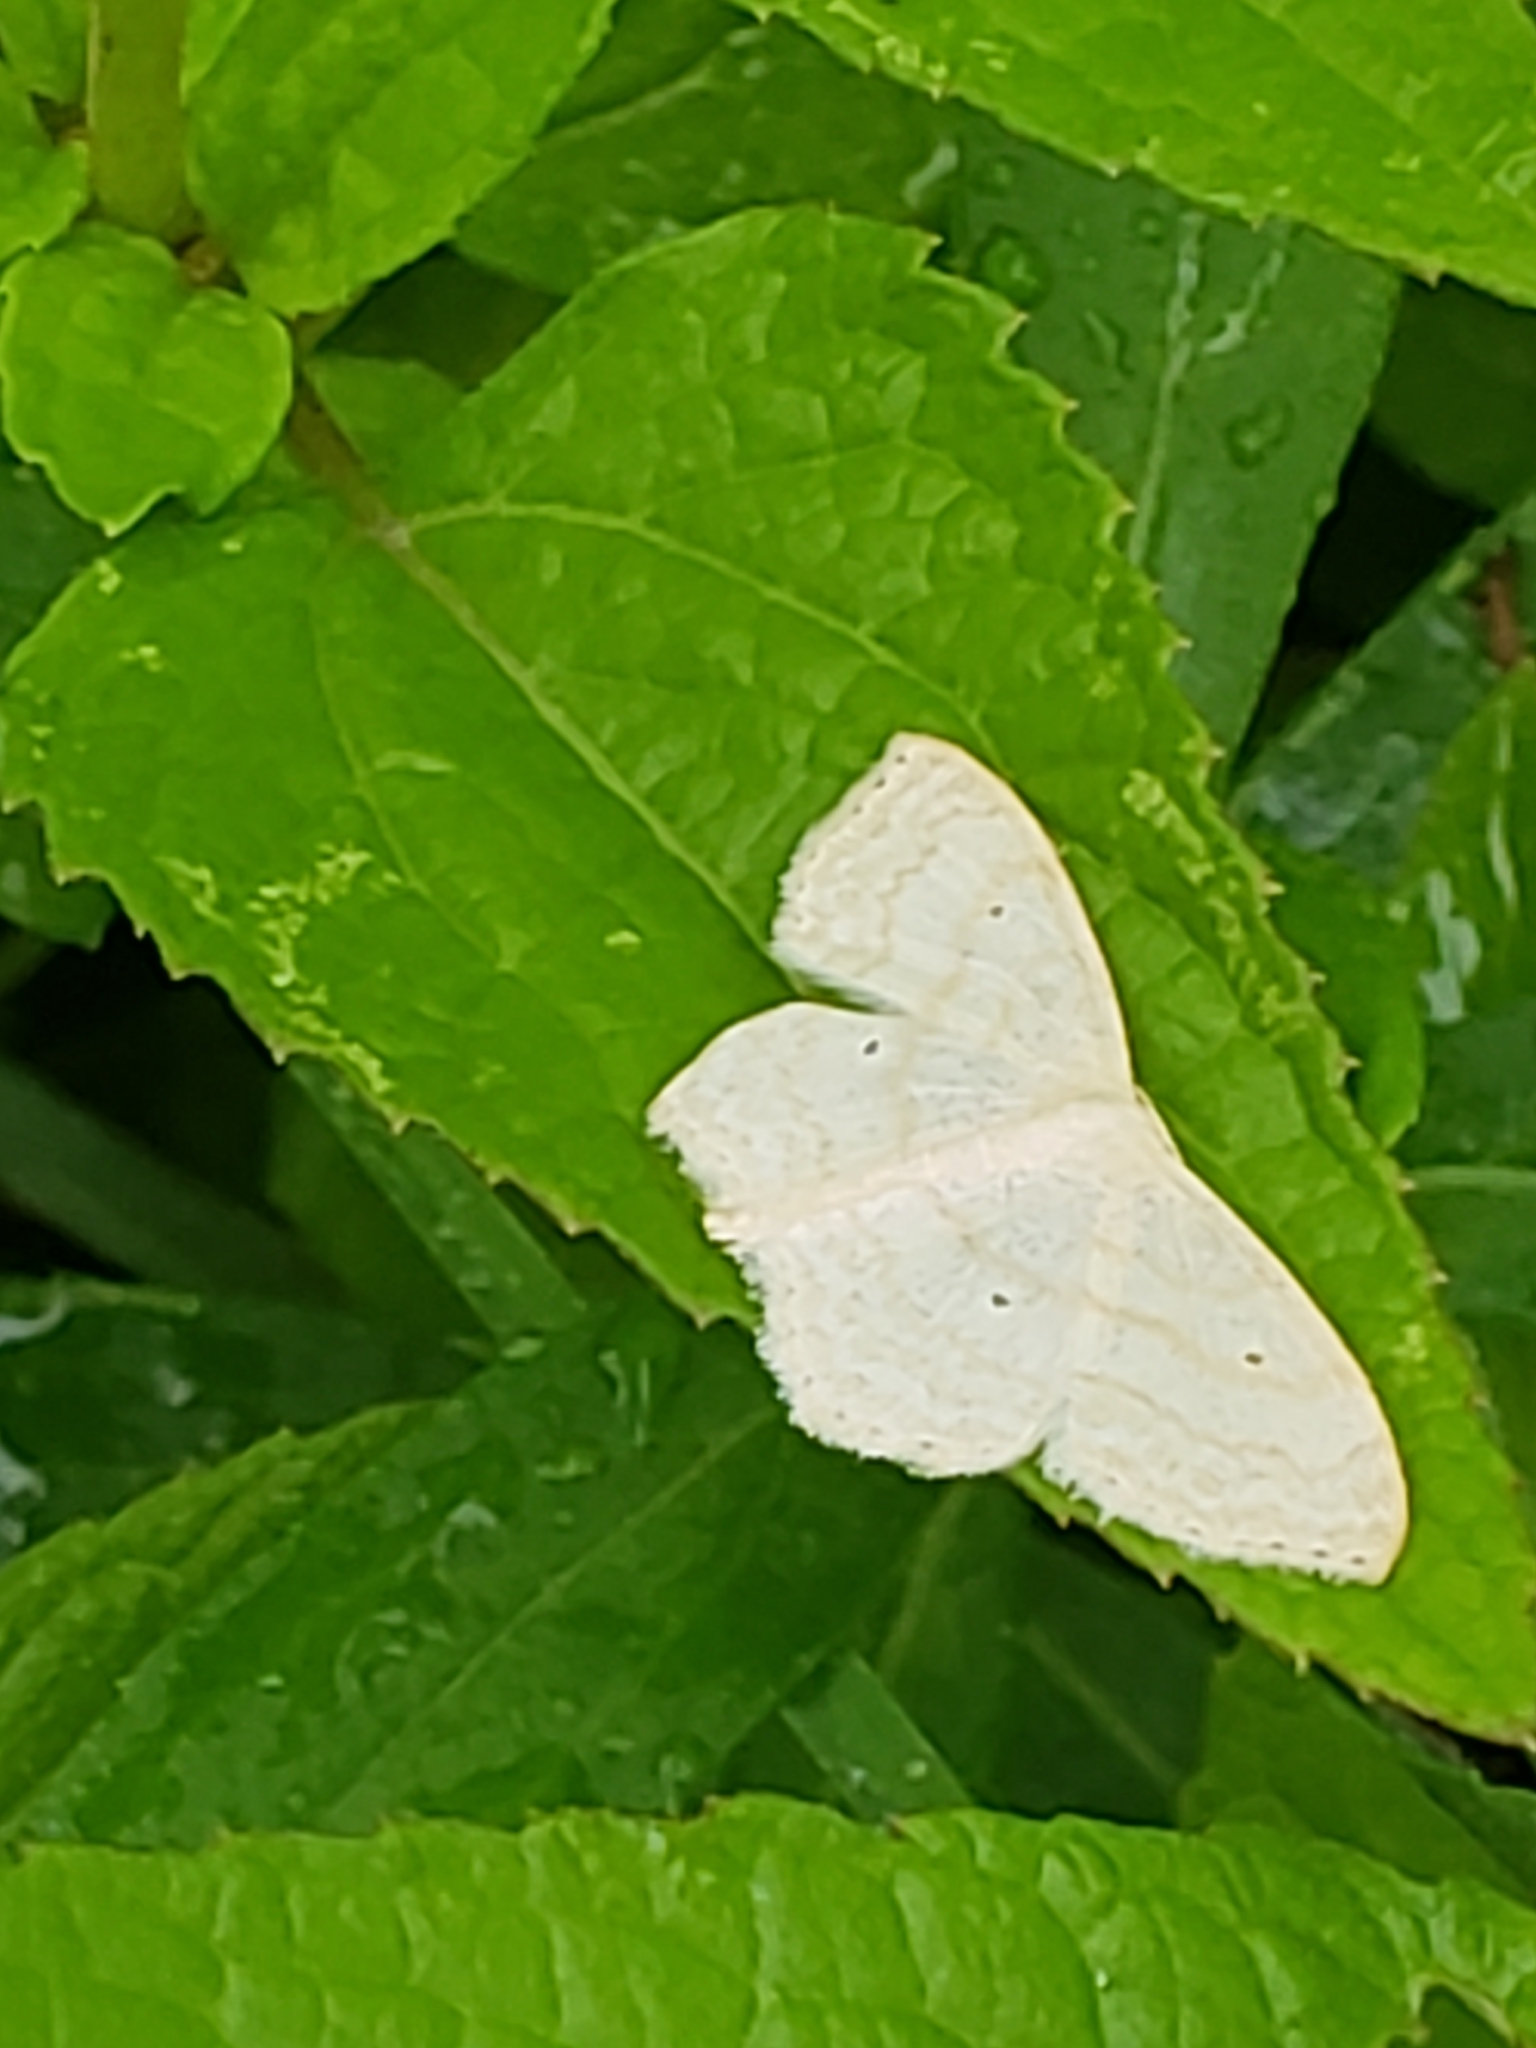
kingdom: Animalia
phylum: Arthropoda
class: Insecta
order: Lepidoptera
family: Geometridae
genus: Scopula
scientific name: Scopula limboundata
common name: Large lace border
